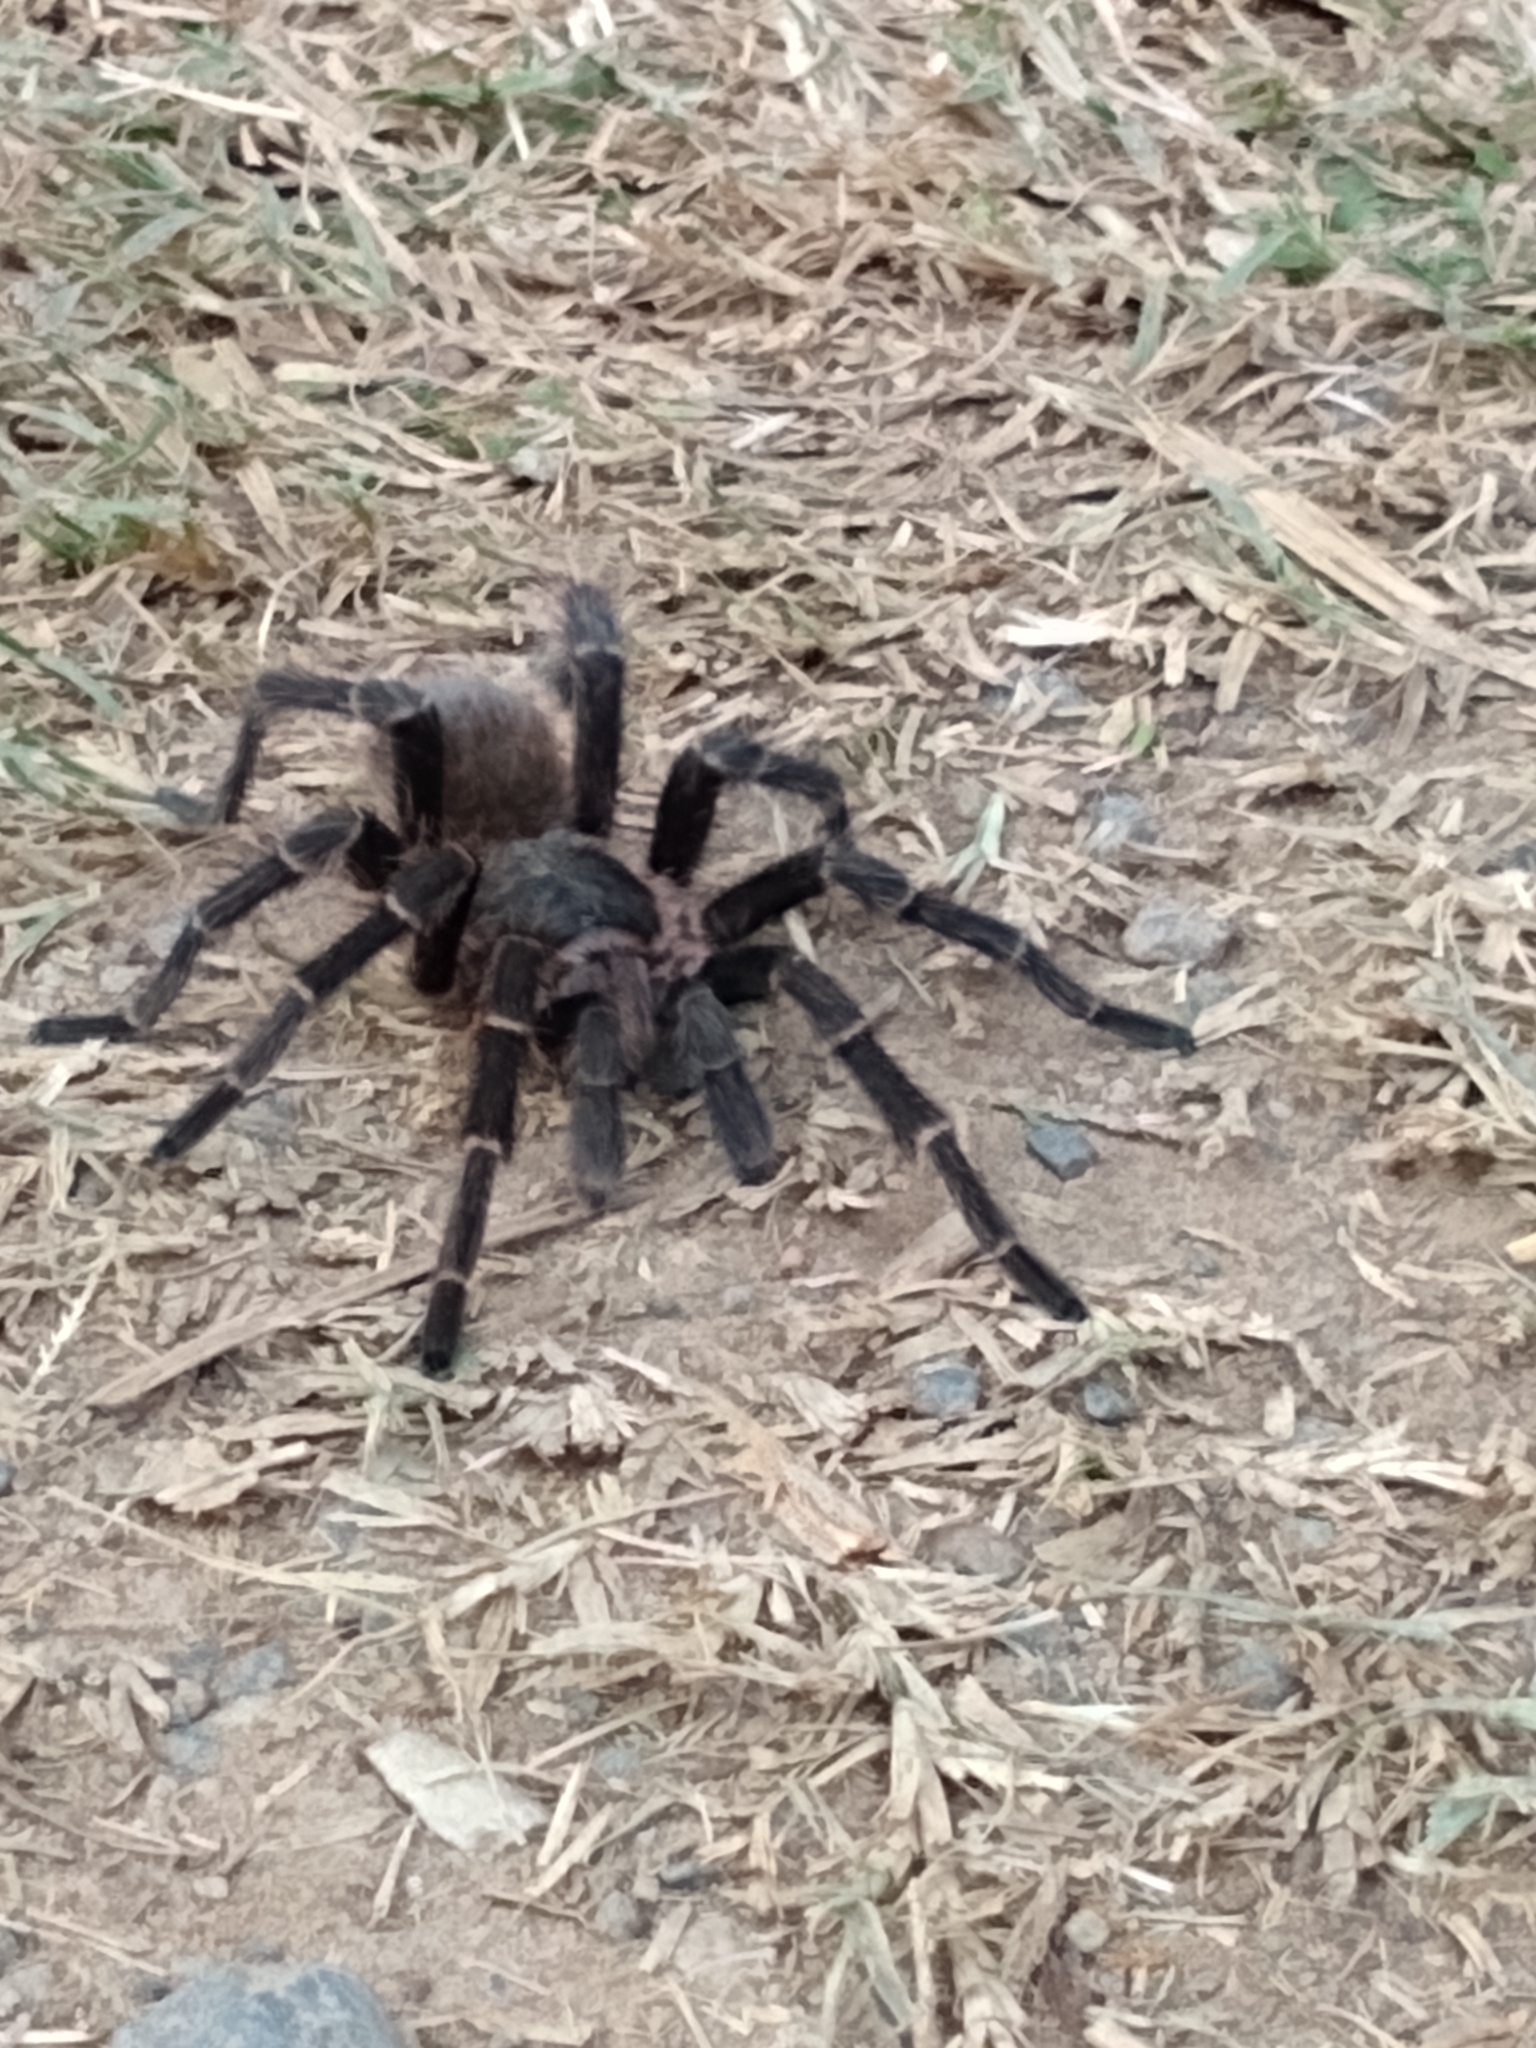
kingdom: Animalia
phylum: Arthropoda
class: Arachnida
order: Araneae
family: Theraphosidae
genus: Vitalius
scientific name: Vitalius roseus
